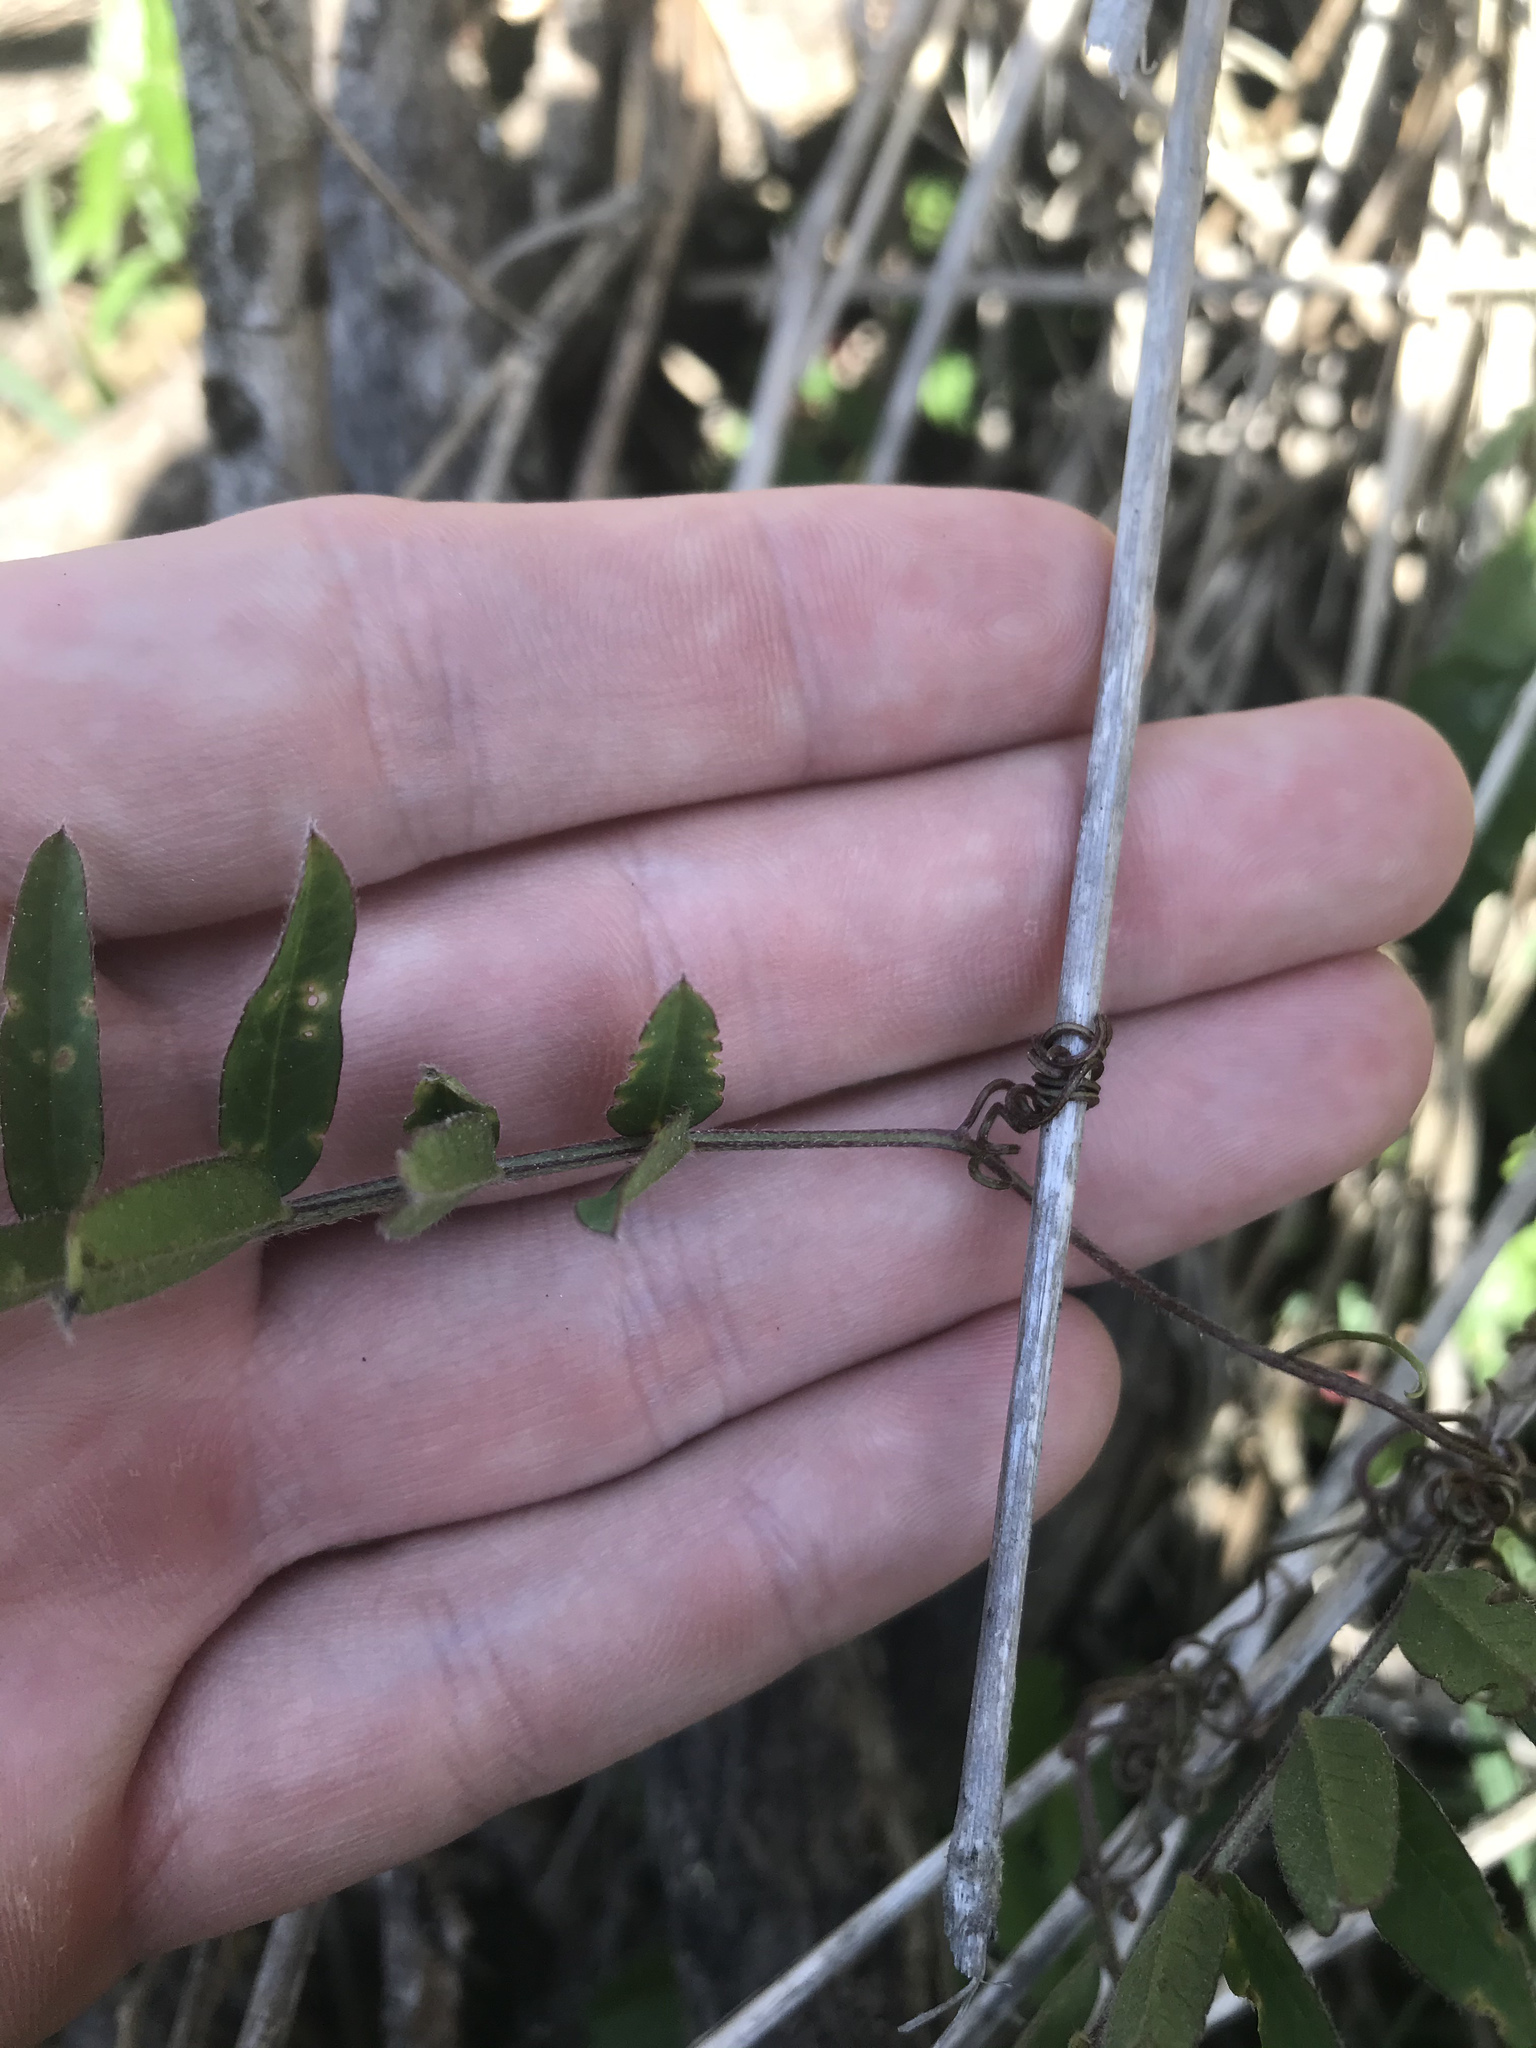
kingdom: Plantae
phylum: Tracheophyta
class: Magnoliopsida
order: Fabales
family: Fabaceae
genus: Vicia
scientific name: Vicia
